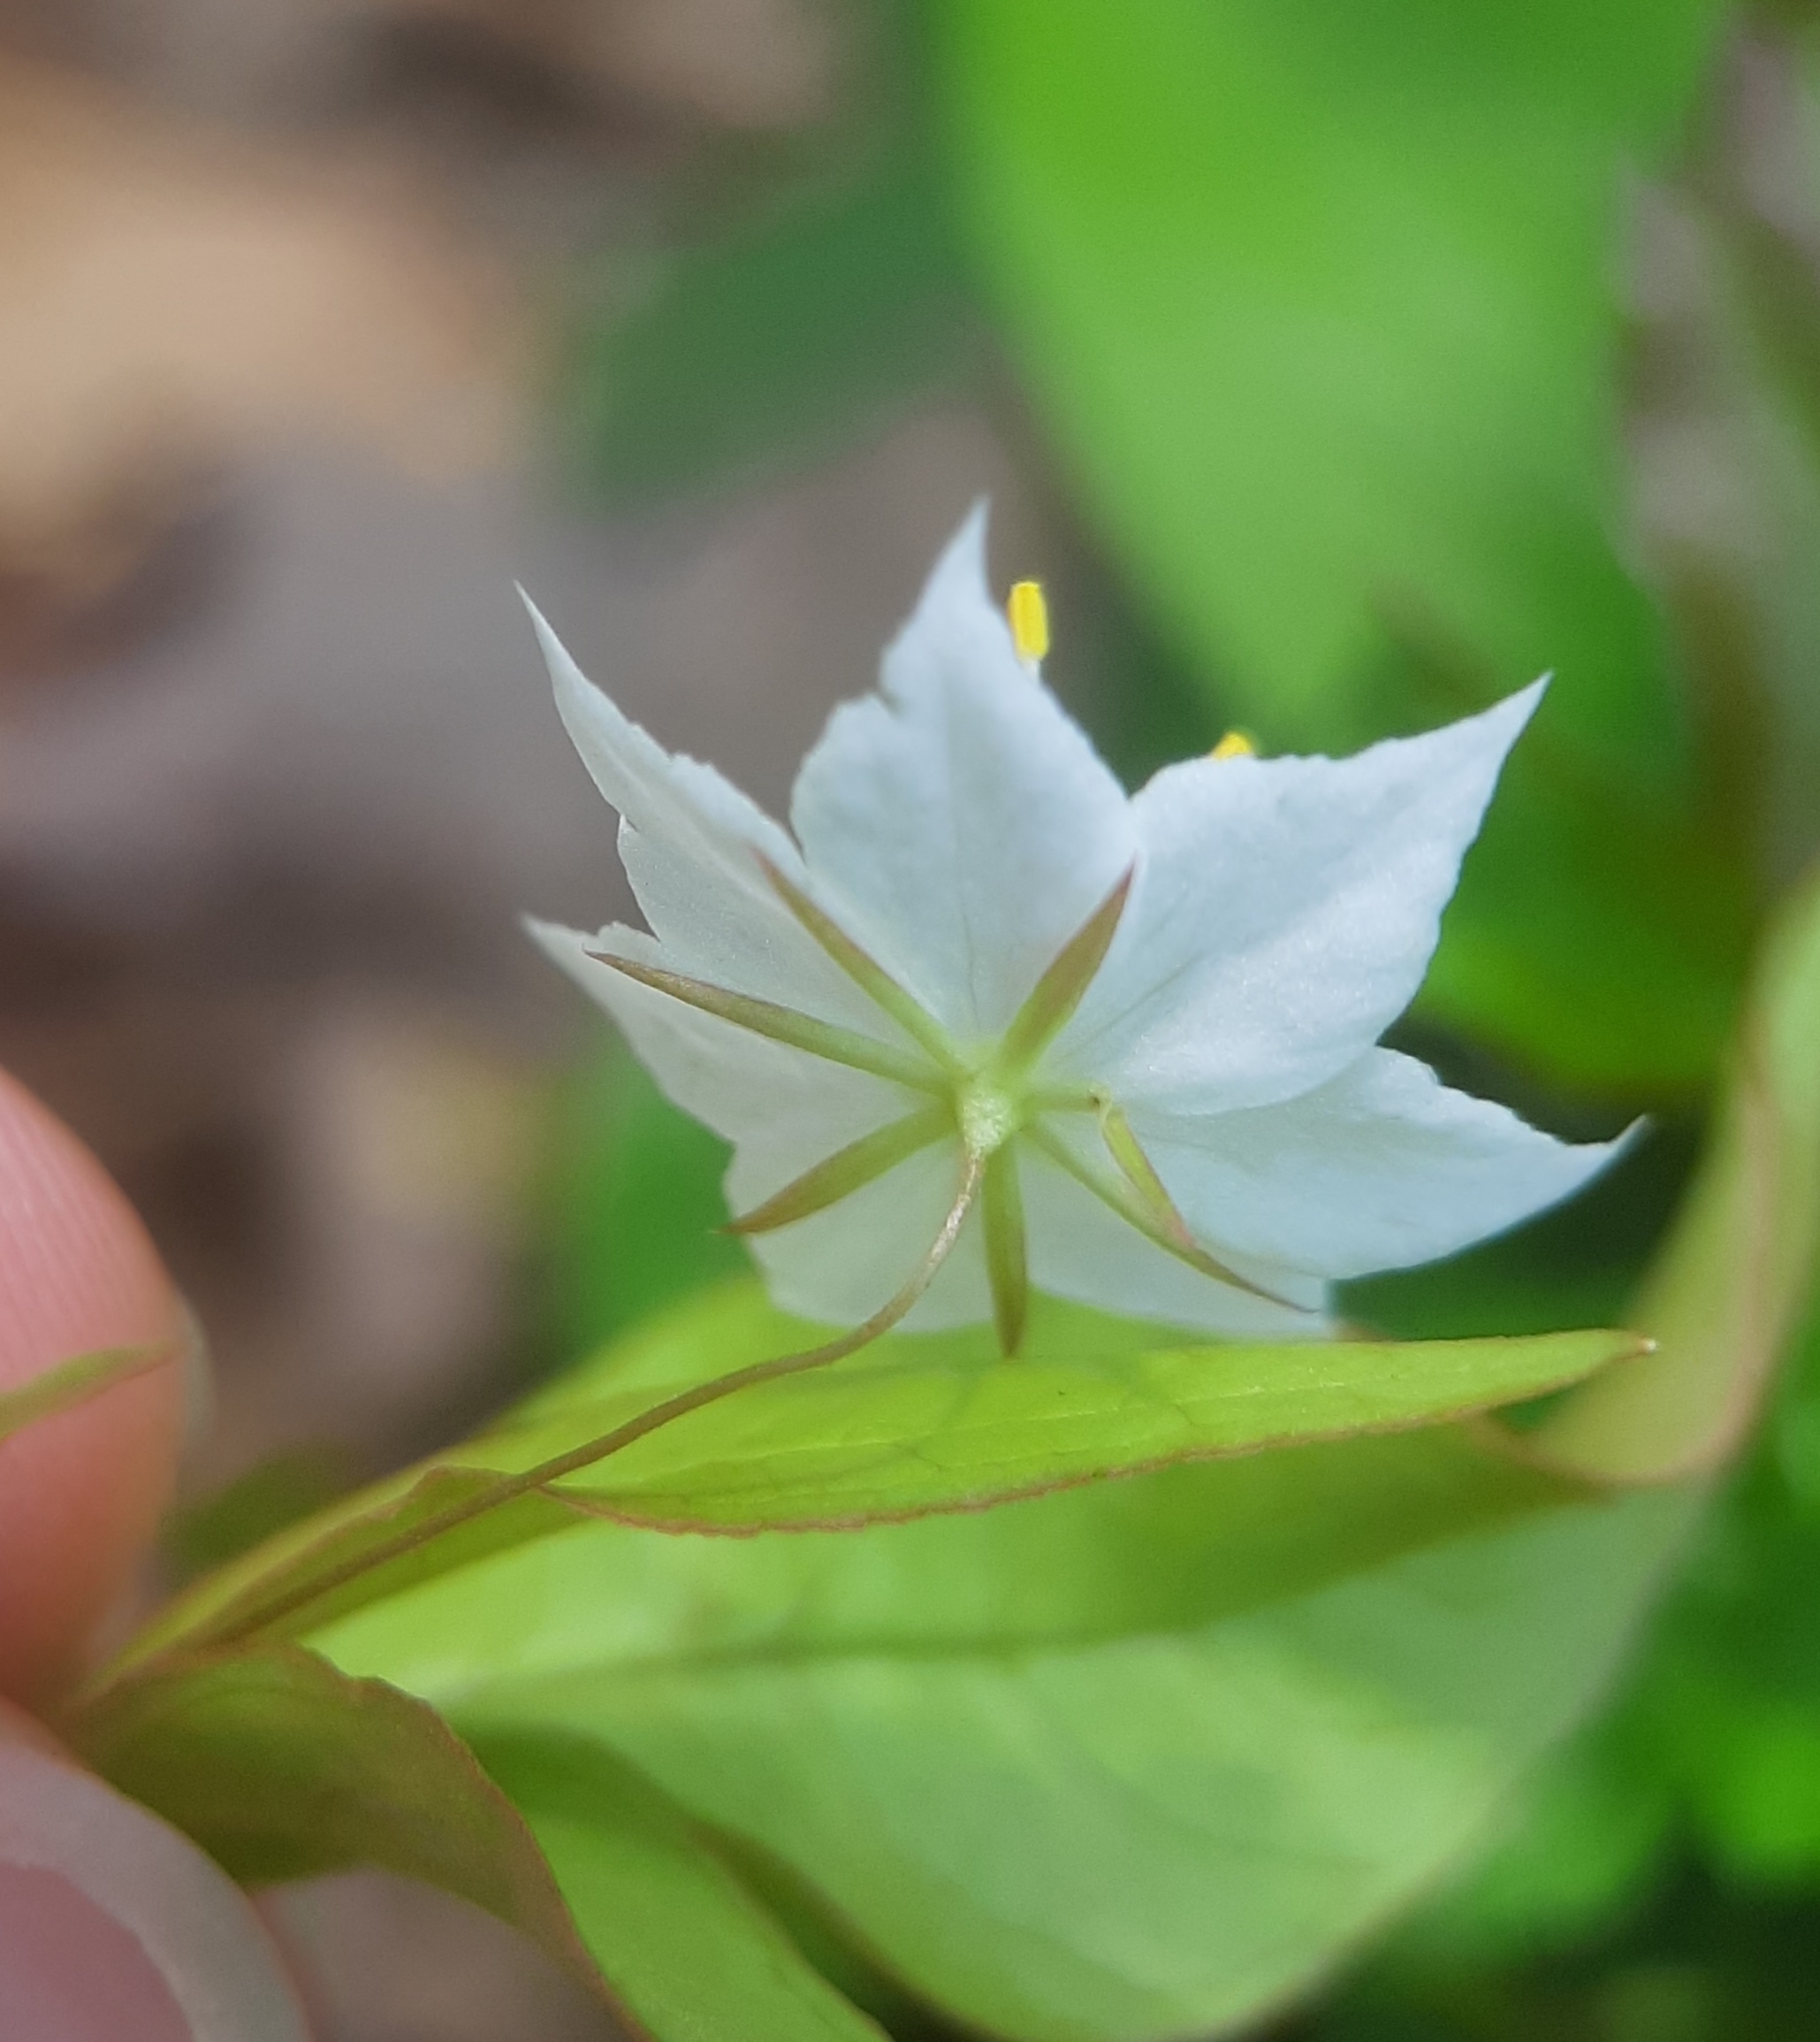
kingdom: Plantae
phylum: Tracheophyta
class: Magnoliopsida
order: Ericales
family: Primulaceae
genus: Lysimachia
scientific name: Lysimachia borealis
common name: American starflower
